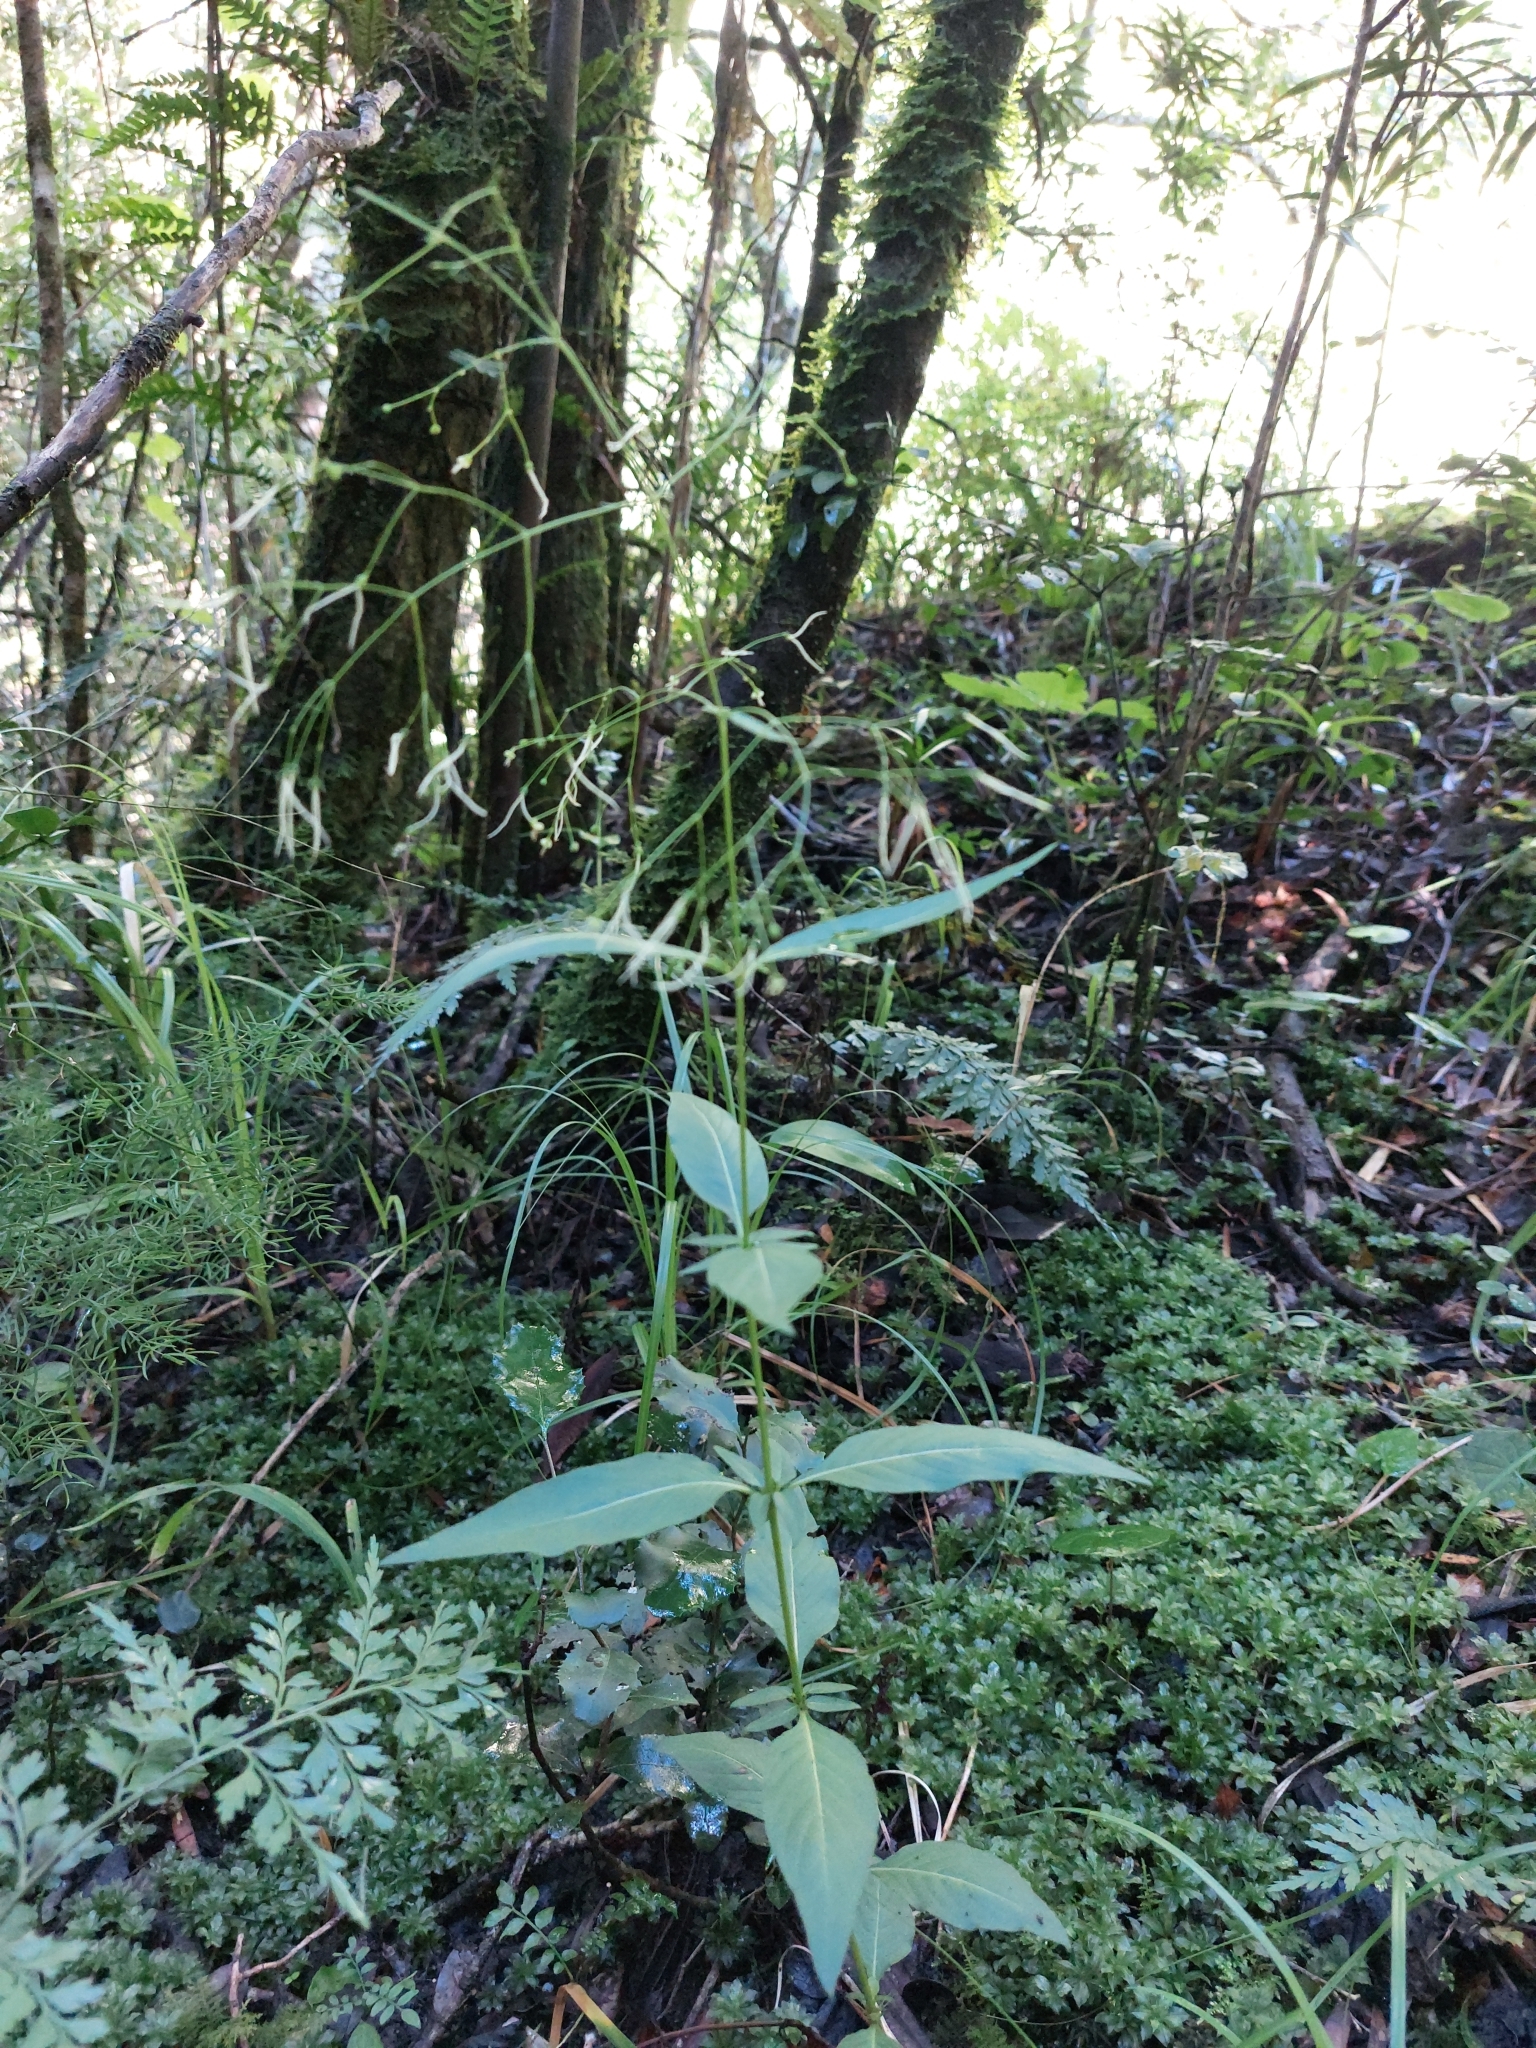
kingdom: Plantae
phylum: Tracheophyta
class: Magnoliopsida
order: Gentianales
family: Rubiaceae
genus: Galopina
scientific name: Galopina circaeoides
